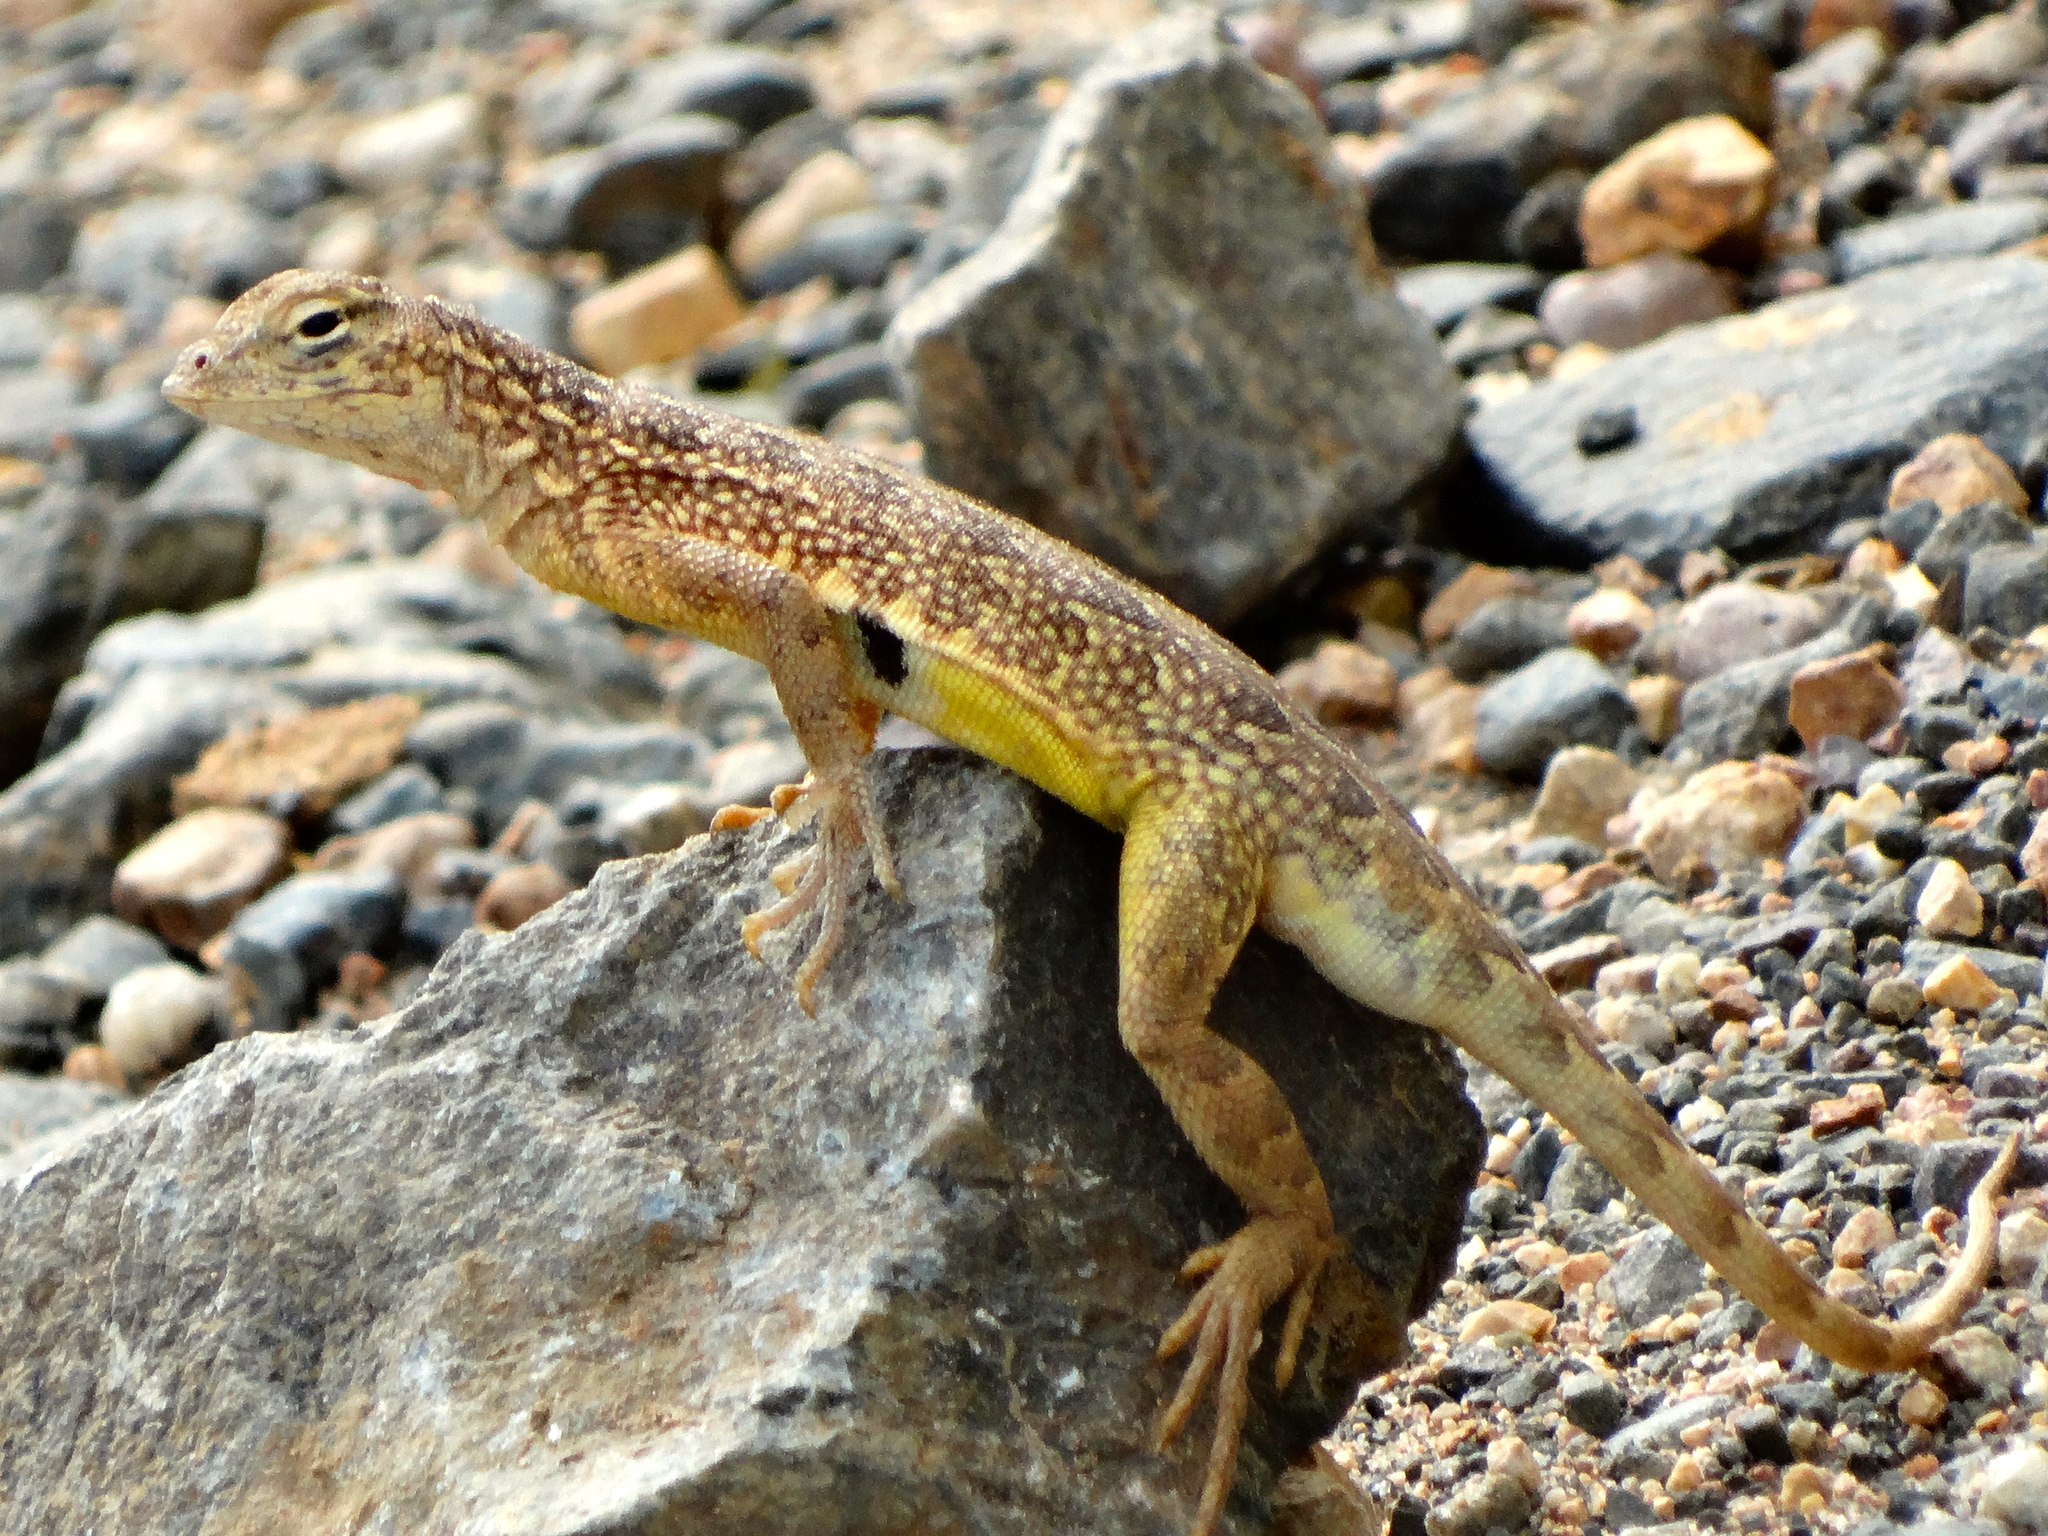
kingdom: Animalia
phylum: Chordata
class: Squamata
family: Phrynosomatidae
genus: Holbrookia
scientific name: Holbrookia elegans
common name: Elegant earless lizard
